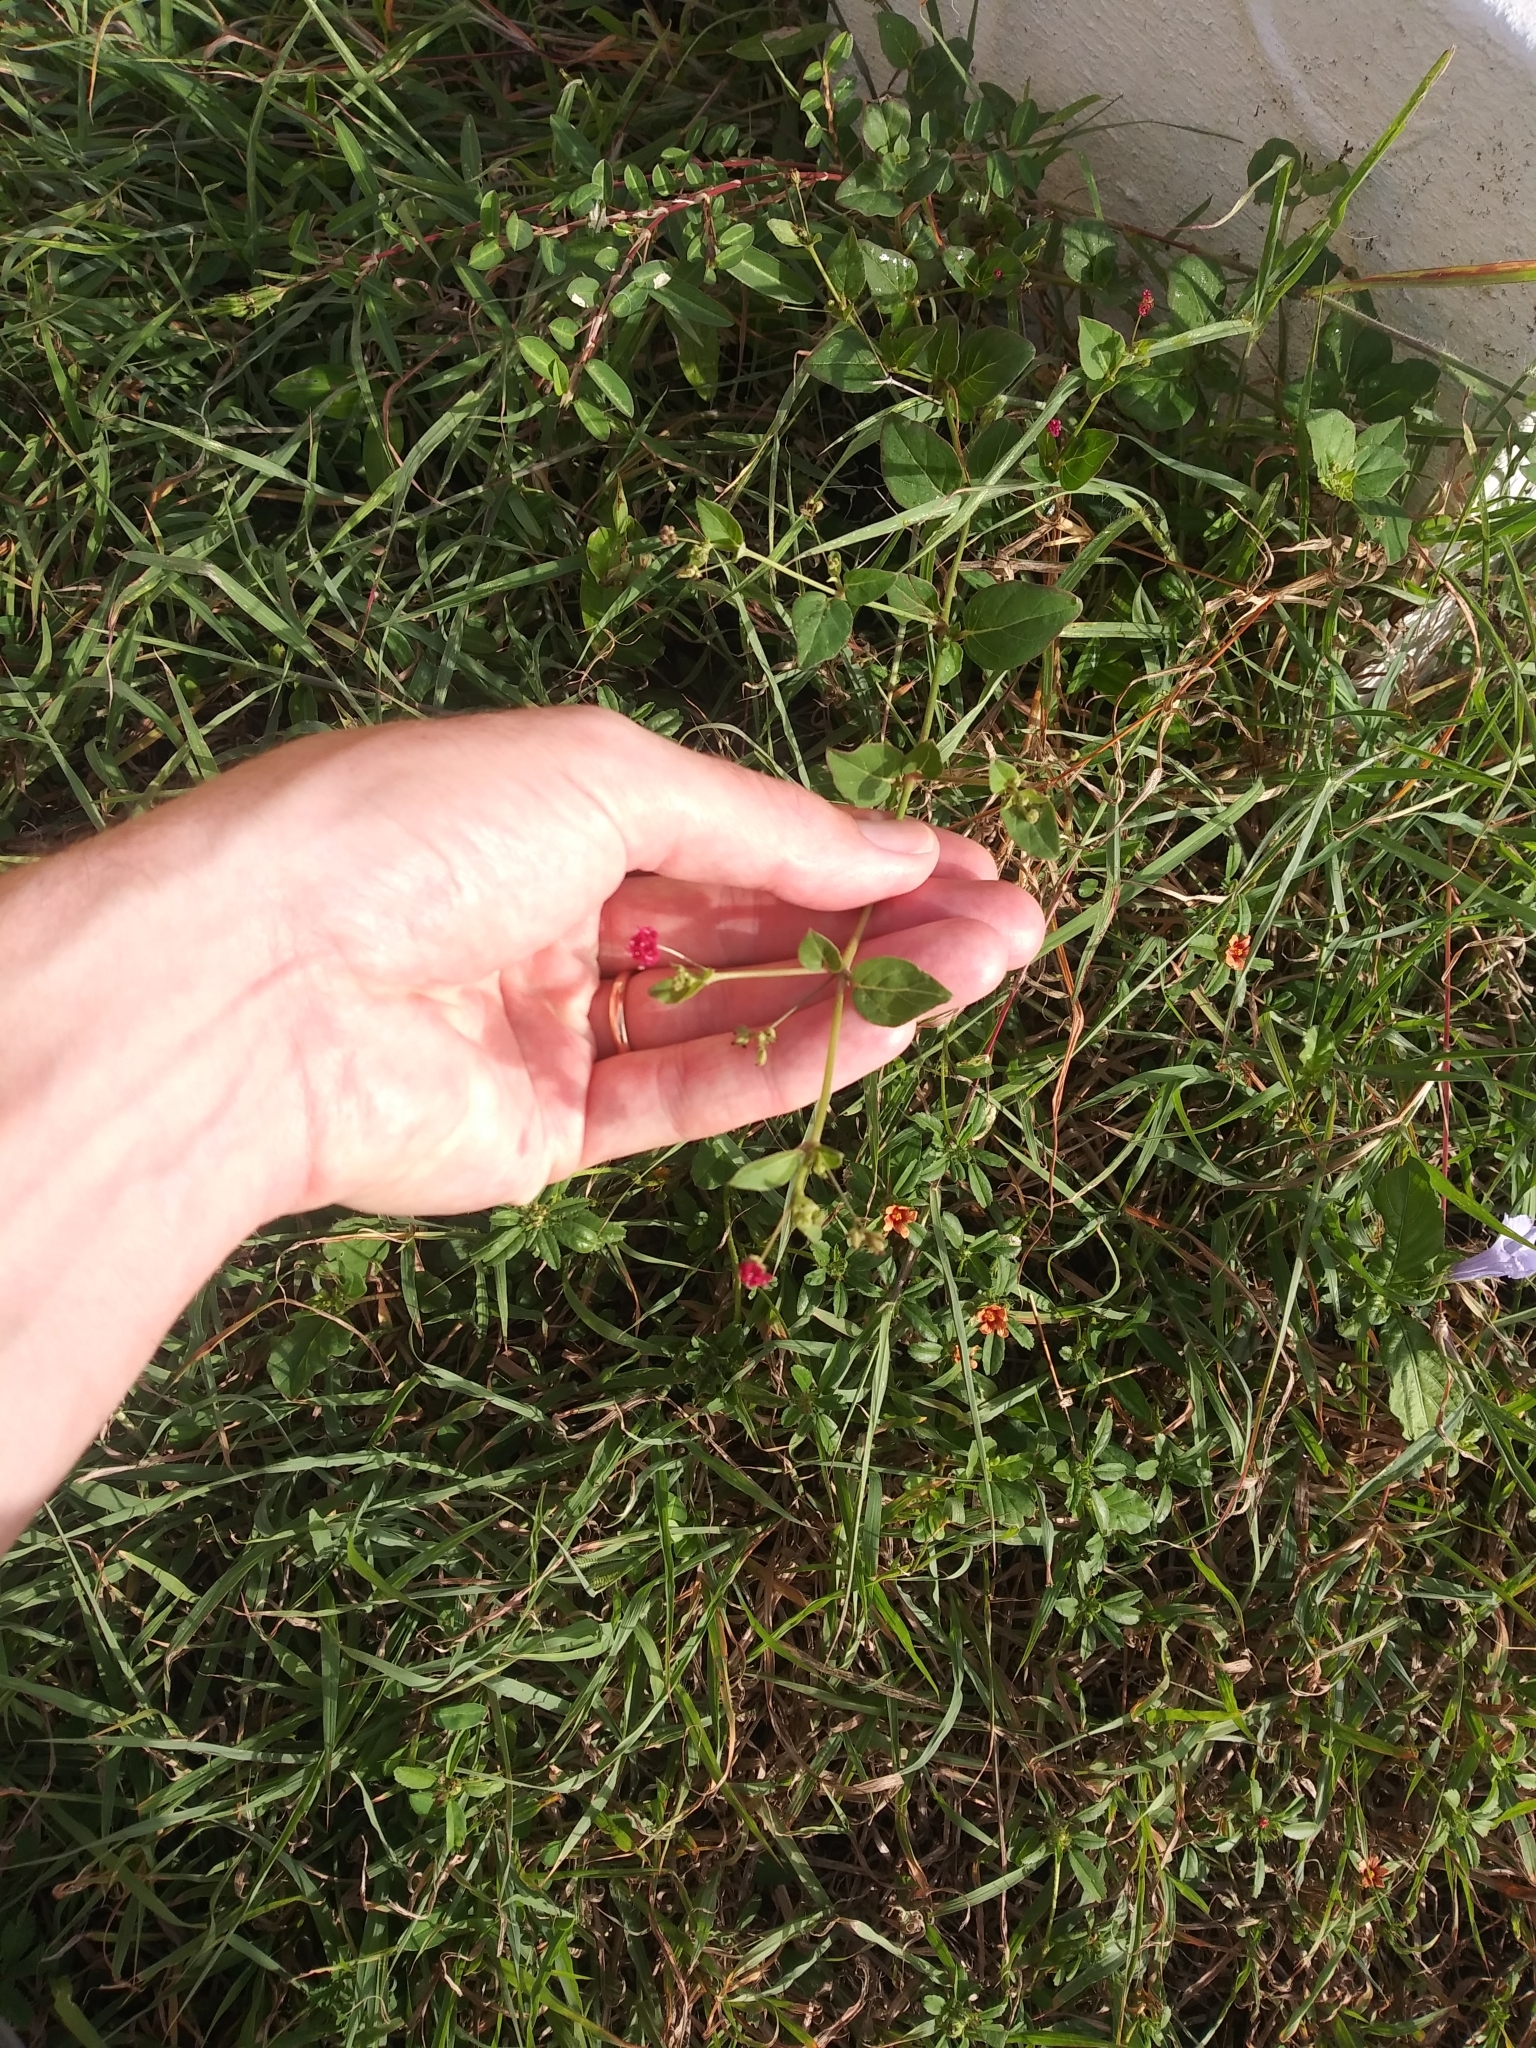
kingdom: Plantae
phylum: Tracheophyta
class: Magnoliopsida
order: Caryophyllales
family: Nyctaginaceae
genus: Boerhavia
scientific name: Boerhavia coccinea
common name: Scarlet spiderling
